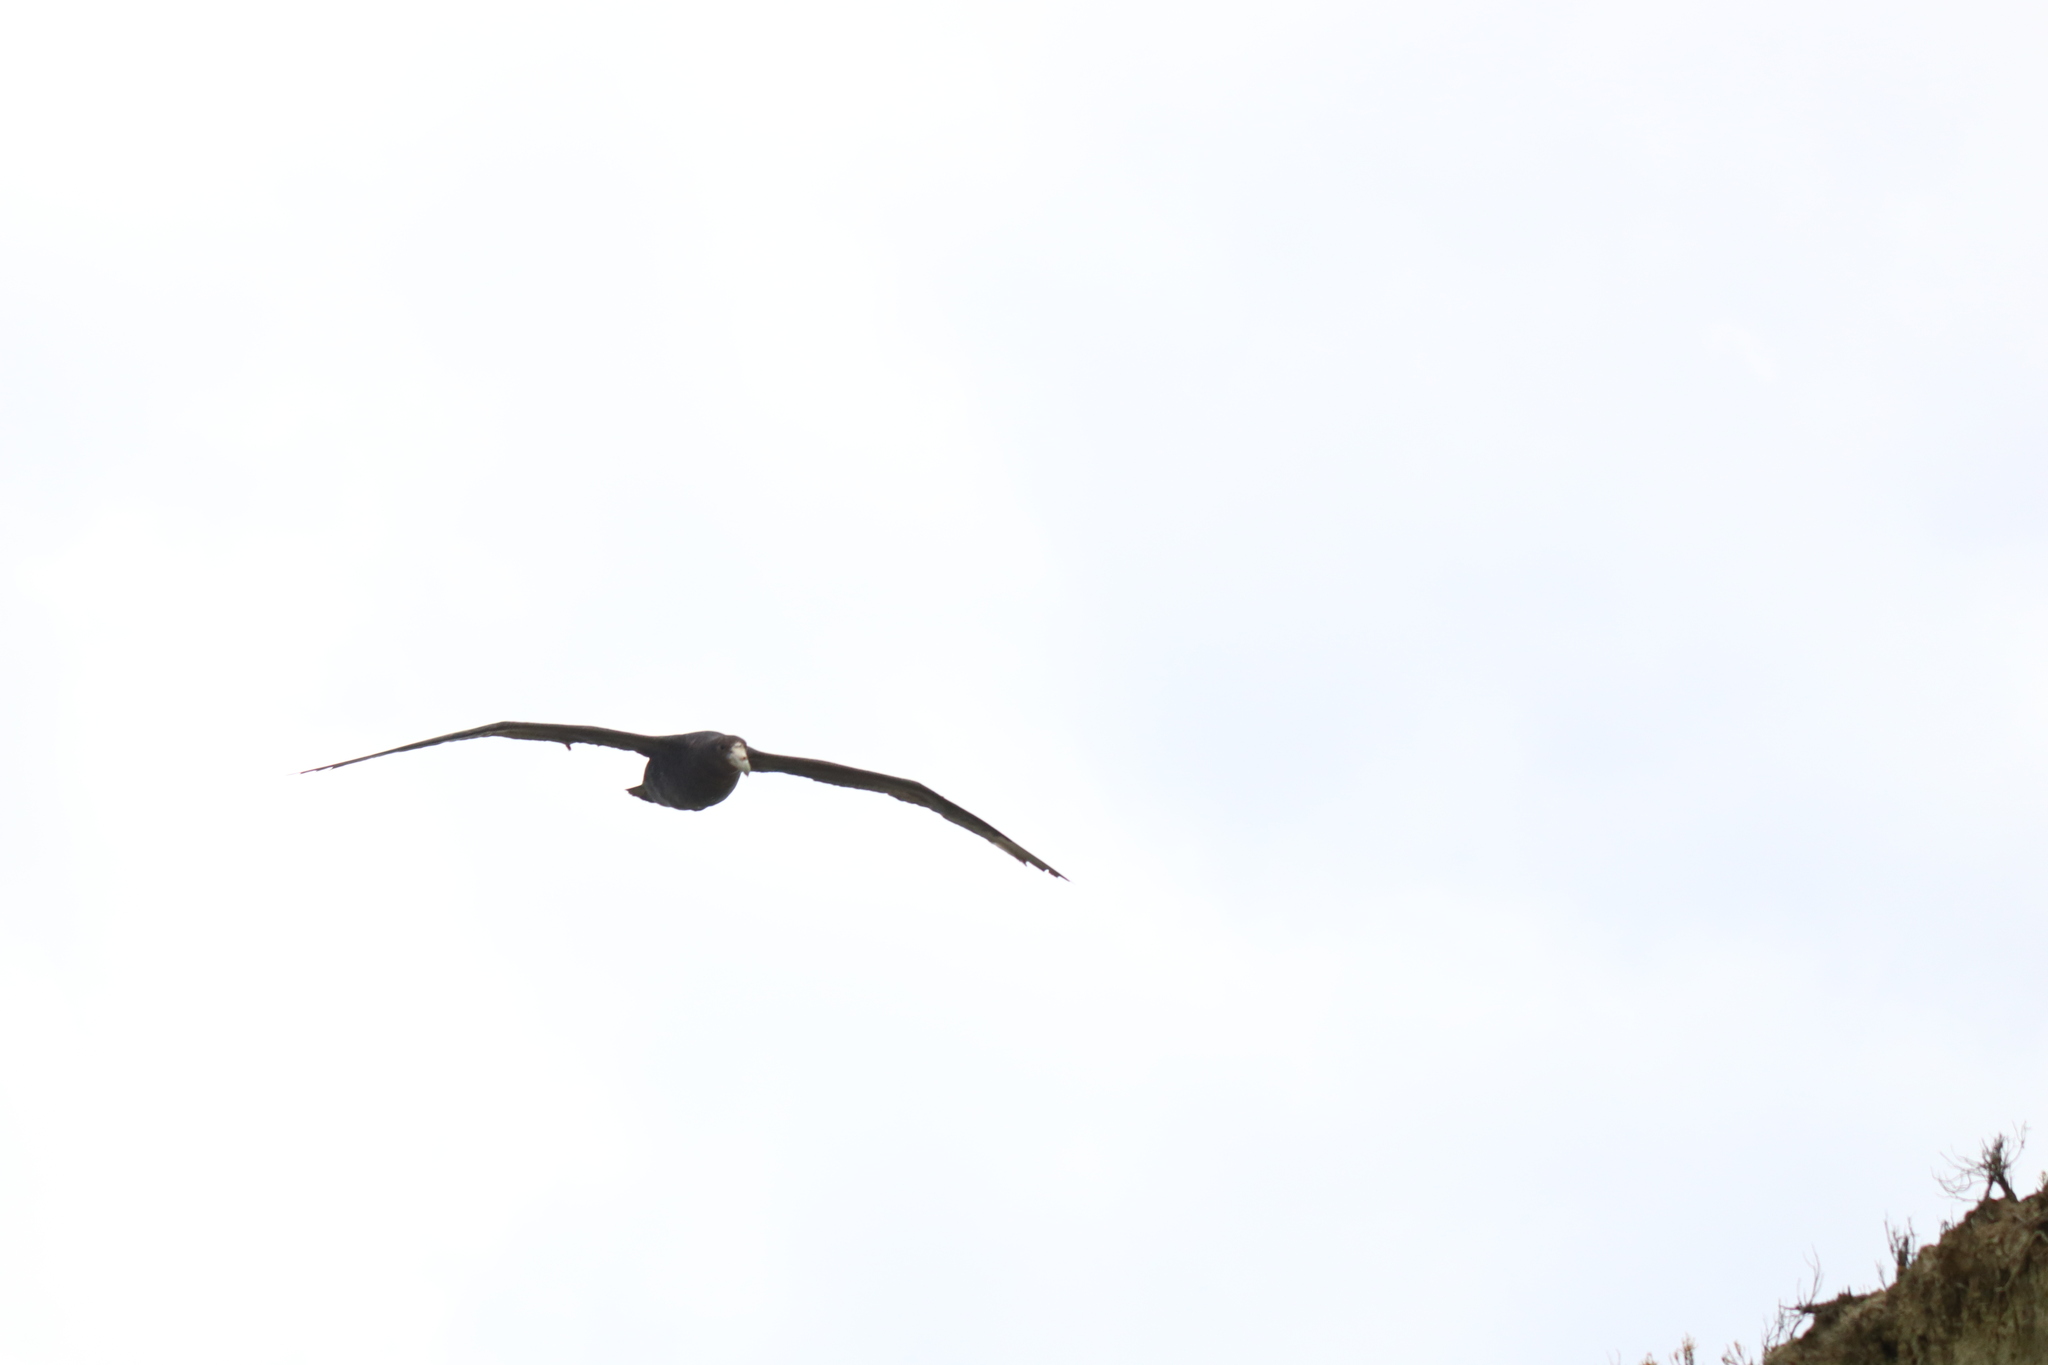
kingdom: Animalia
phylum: Chordata
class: Aves
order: Procellariiformes
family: Procellariidae
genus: Macronectes
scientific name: Macronectes giganteus
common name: Southern giant petrel
